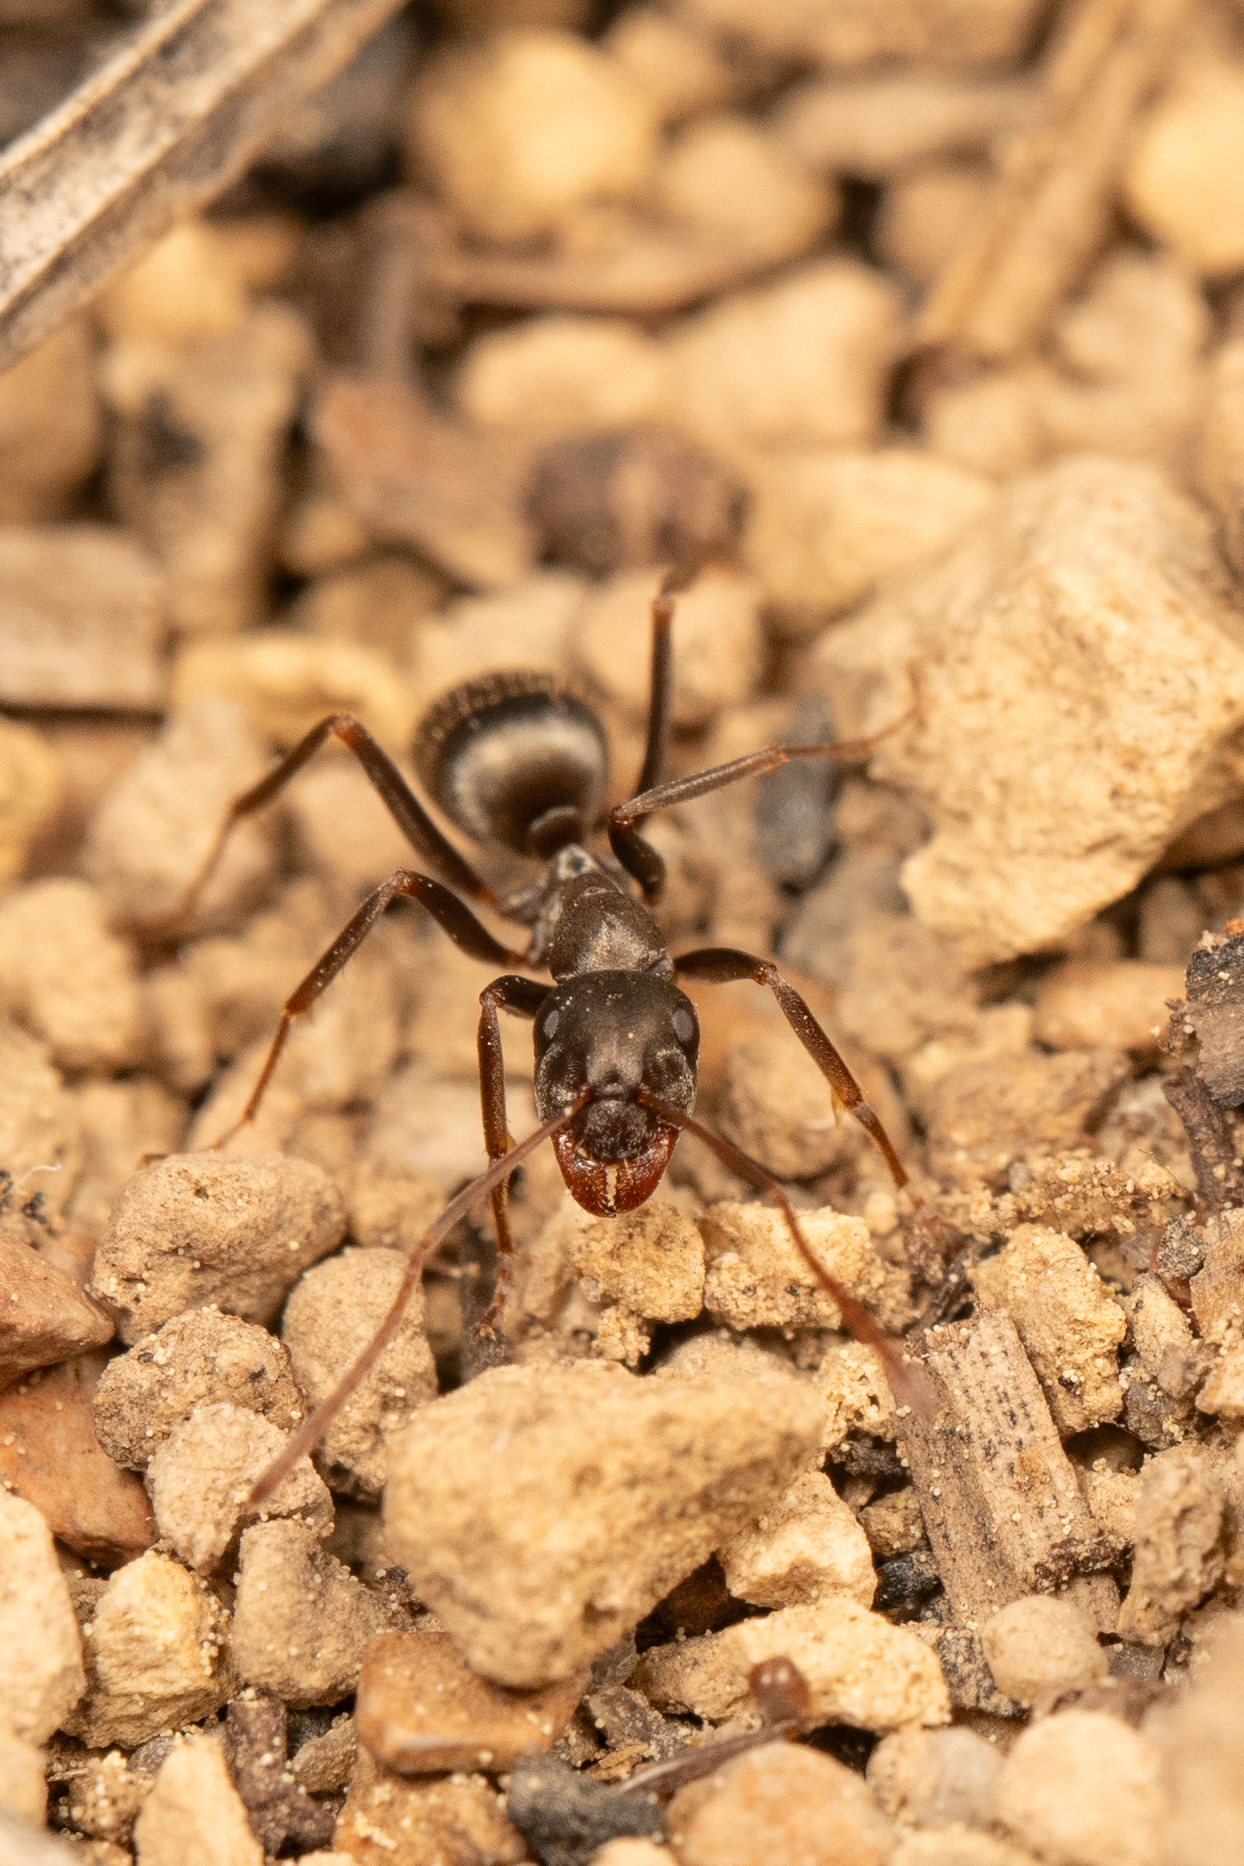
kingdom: Animalia
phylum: Arthropoda
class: Insecta
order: Hymenoptera
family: Formicidae
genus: Formica
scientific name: Formica sibylla
